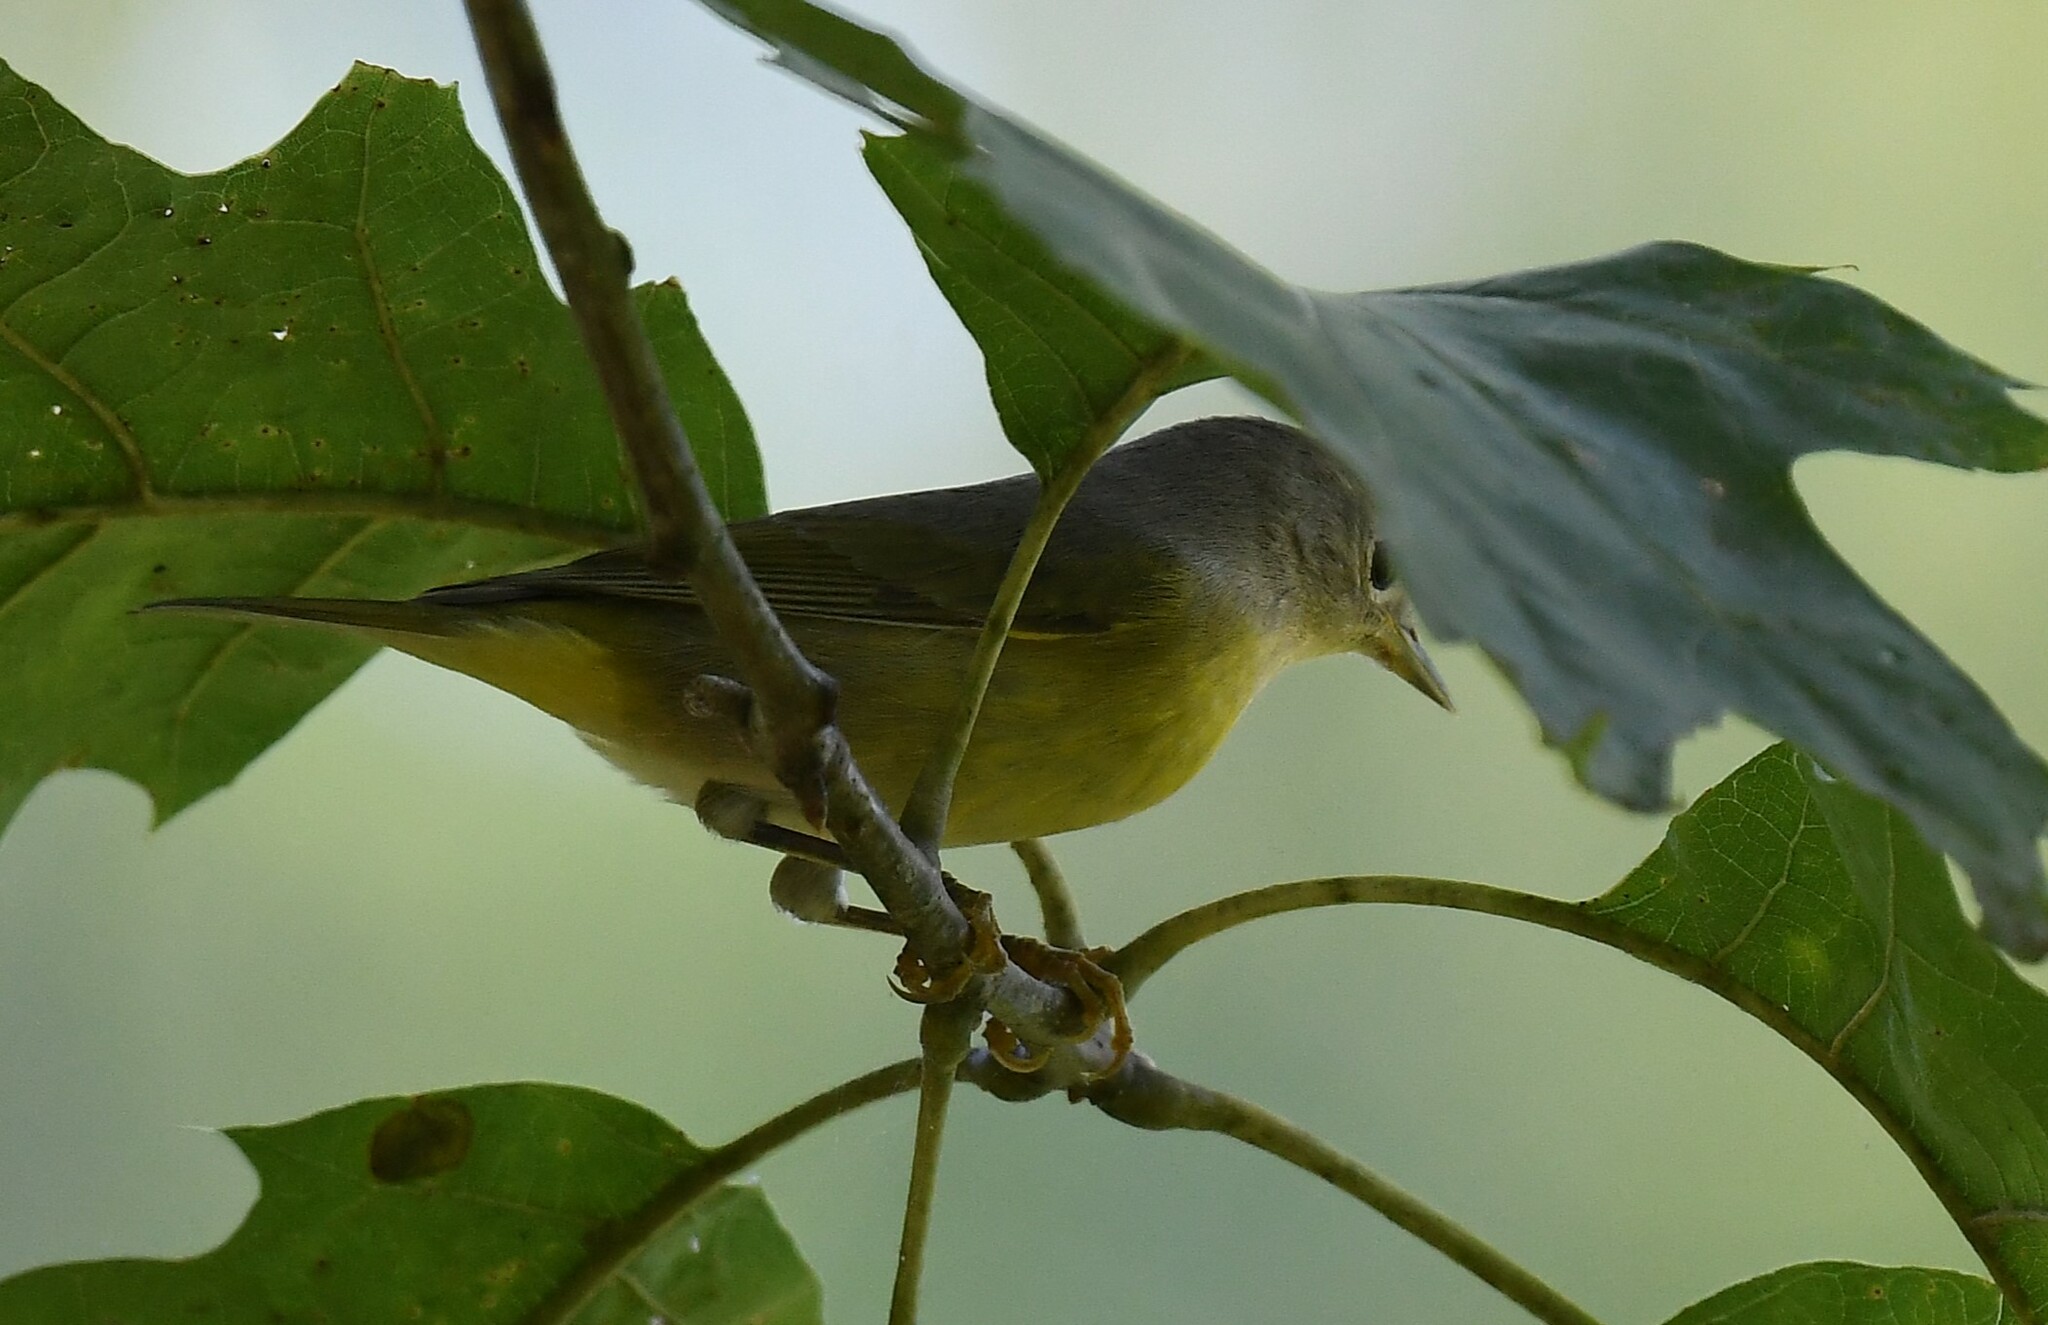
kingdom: Animalia
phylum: Chordata
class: Aves
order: Passeriformes
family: Parulidae
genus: Leiothlypis
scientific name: Leiothlypis ruficapilla
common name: Nashville warbler
